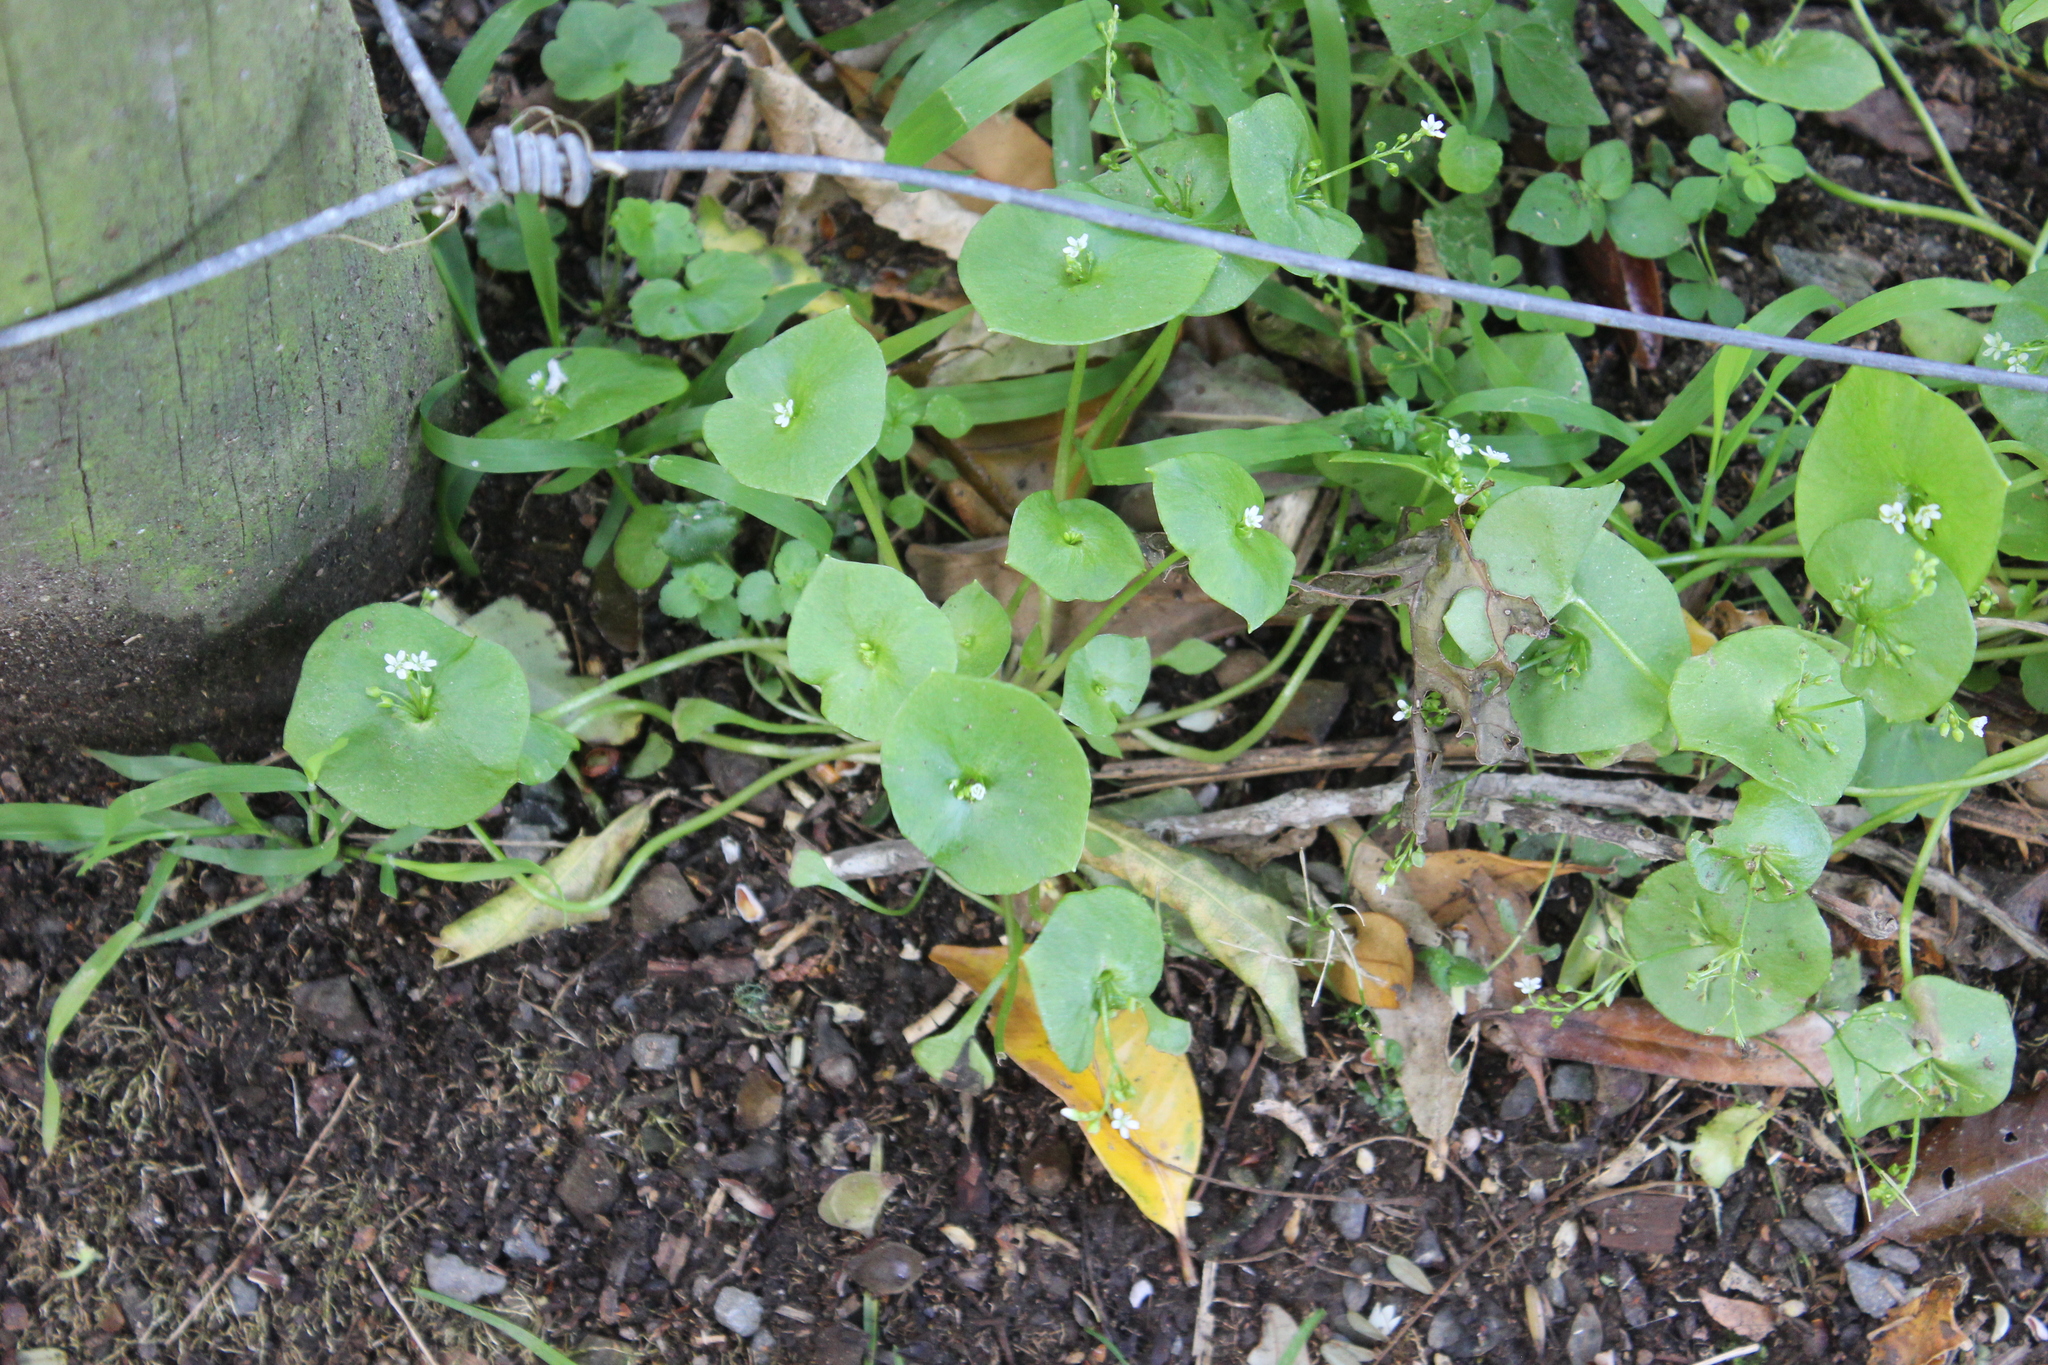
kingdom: Plantae
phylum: Tracheophyta
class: Magnoliopsida
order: Caryophyllales
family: Montiaceae
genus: Claytonia
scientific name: Claytonia perfoliata
